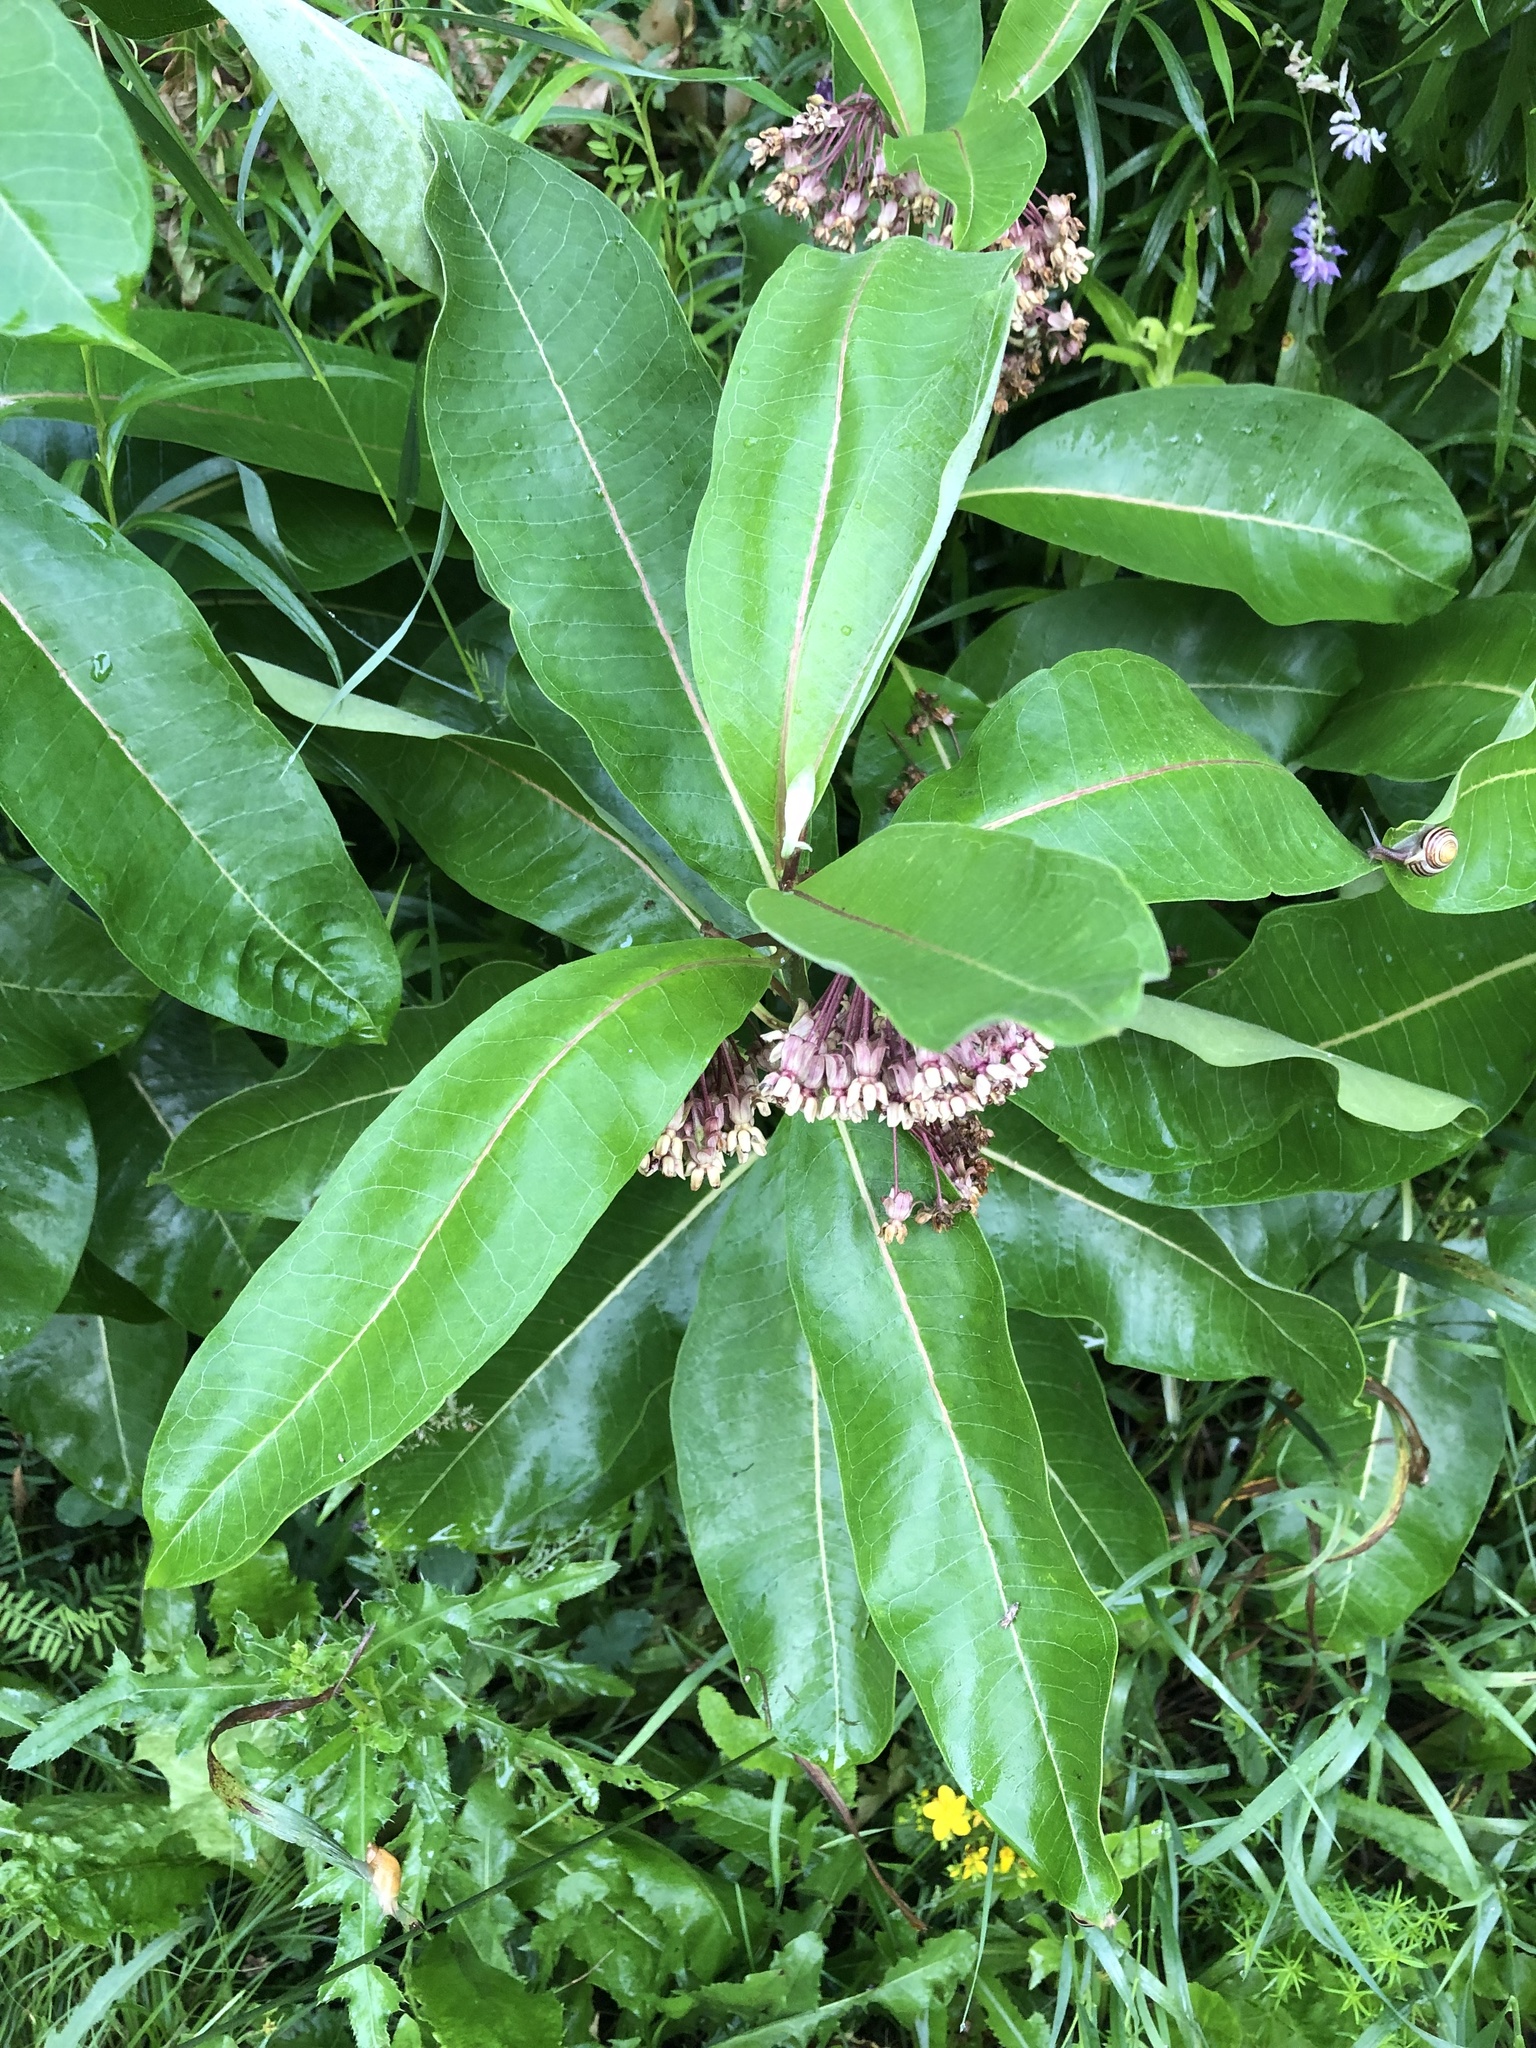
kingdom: Plantae
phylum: Tracheophyta
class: Magnoliopsida
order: Gentianales
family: Apocynaceae
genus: Asclepias
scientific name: Asclepias syriaca
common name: Common milkweed
